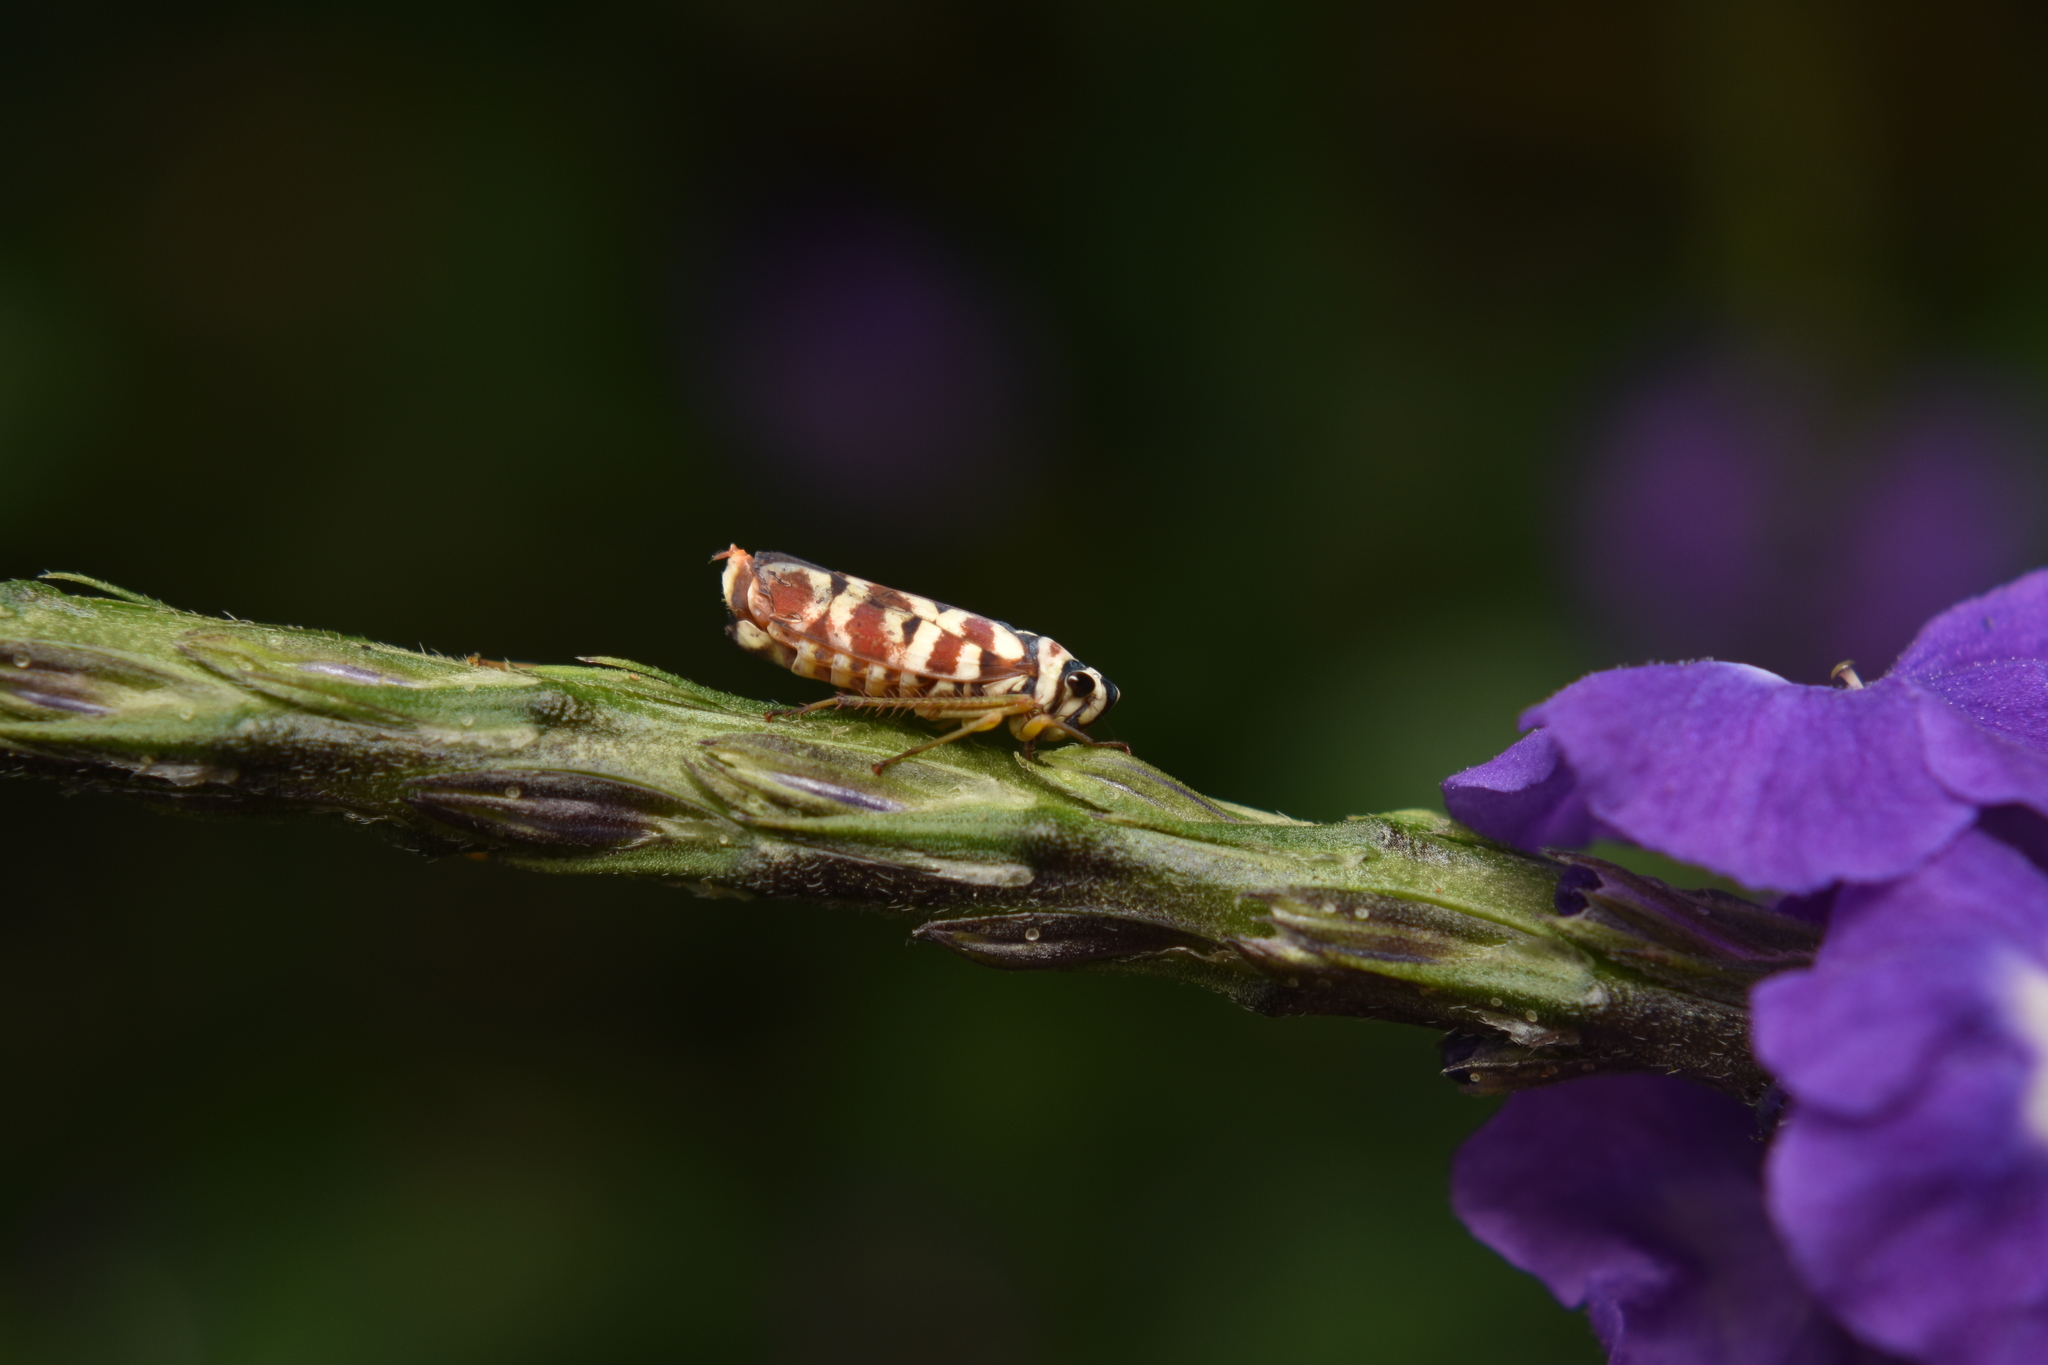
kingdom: Animalia
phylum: Arthropoda
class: Insecta
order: Hemiptera
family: Cicadellidae
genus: Agrosoma
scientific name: Agrosoma placetis
